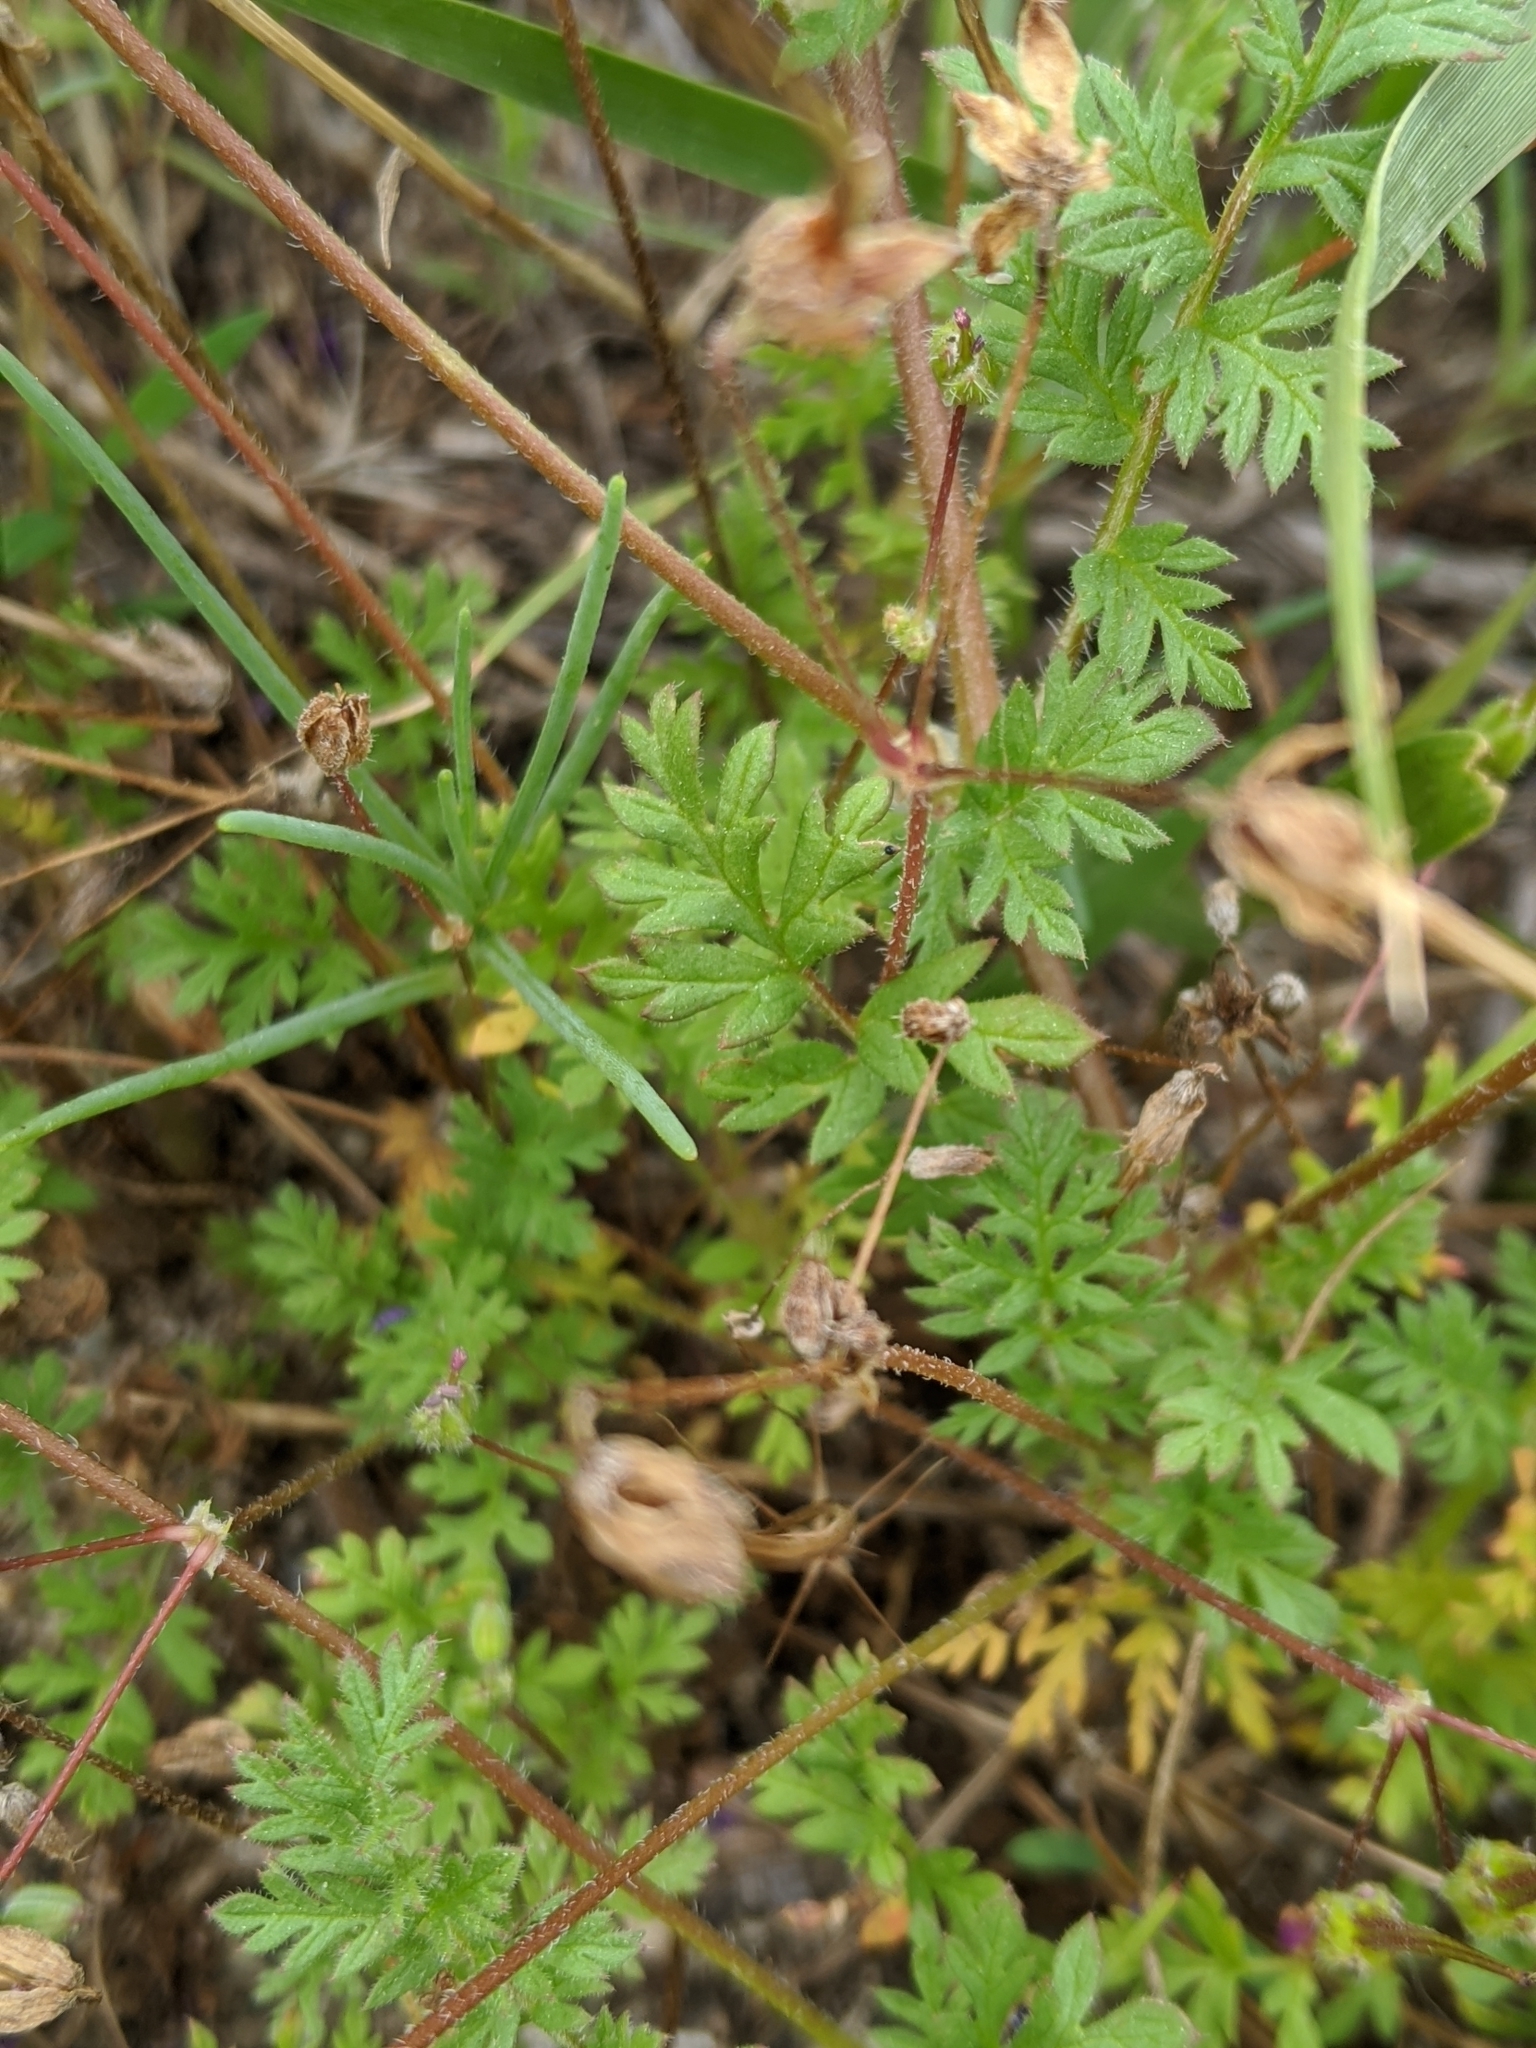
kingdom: Plantae
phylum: Tracheophyta
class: Magnoliopsida
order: Geraniales
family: Geraniaceae
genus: Erodium
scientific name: Erodium cicutarium
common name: Common stork's-bill
